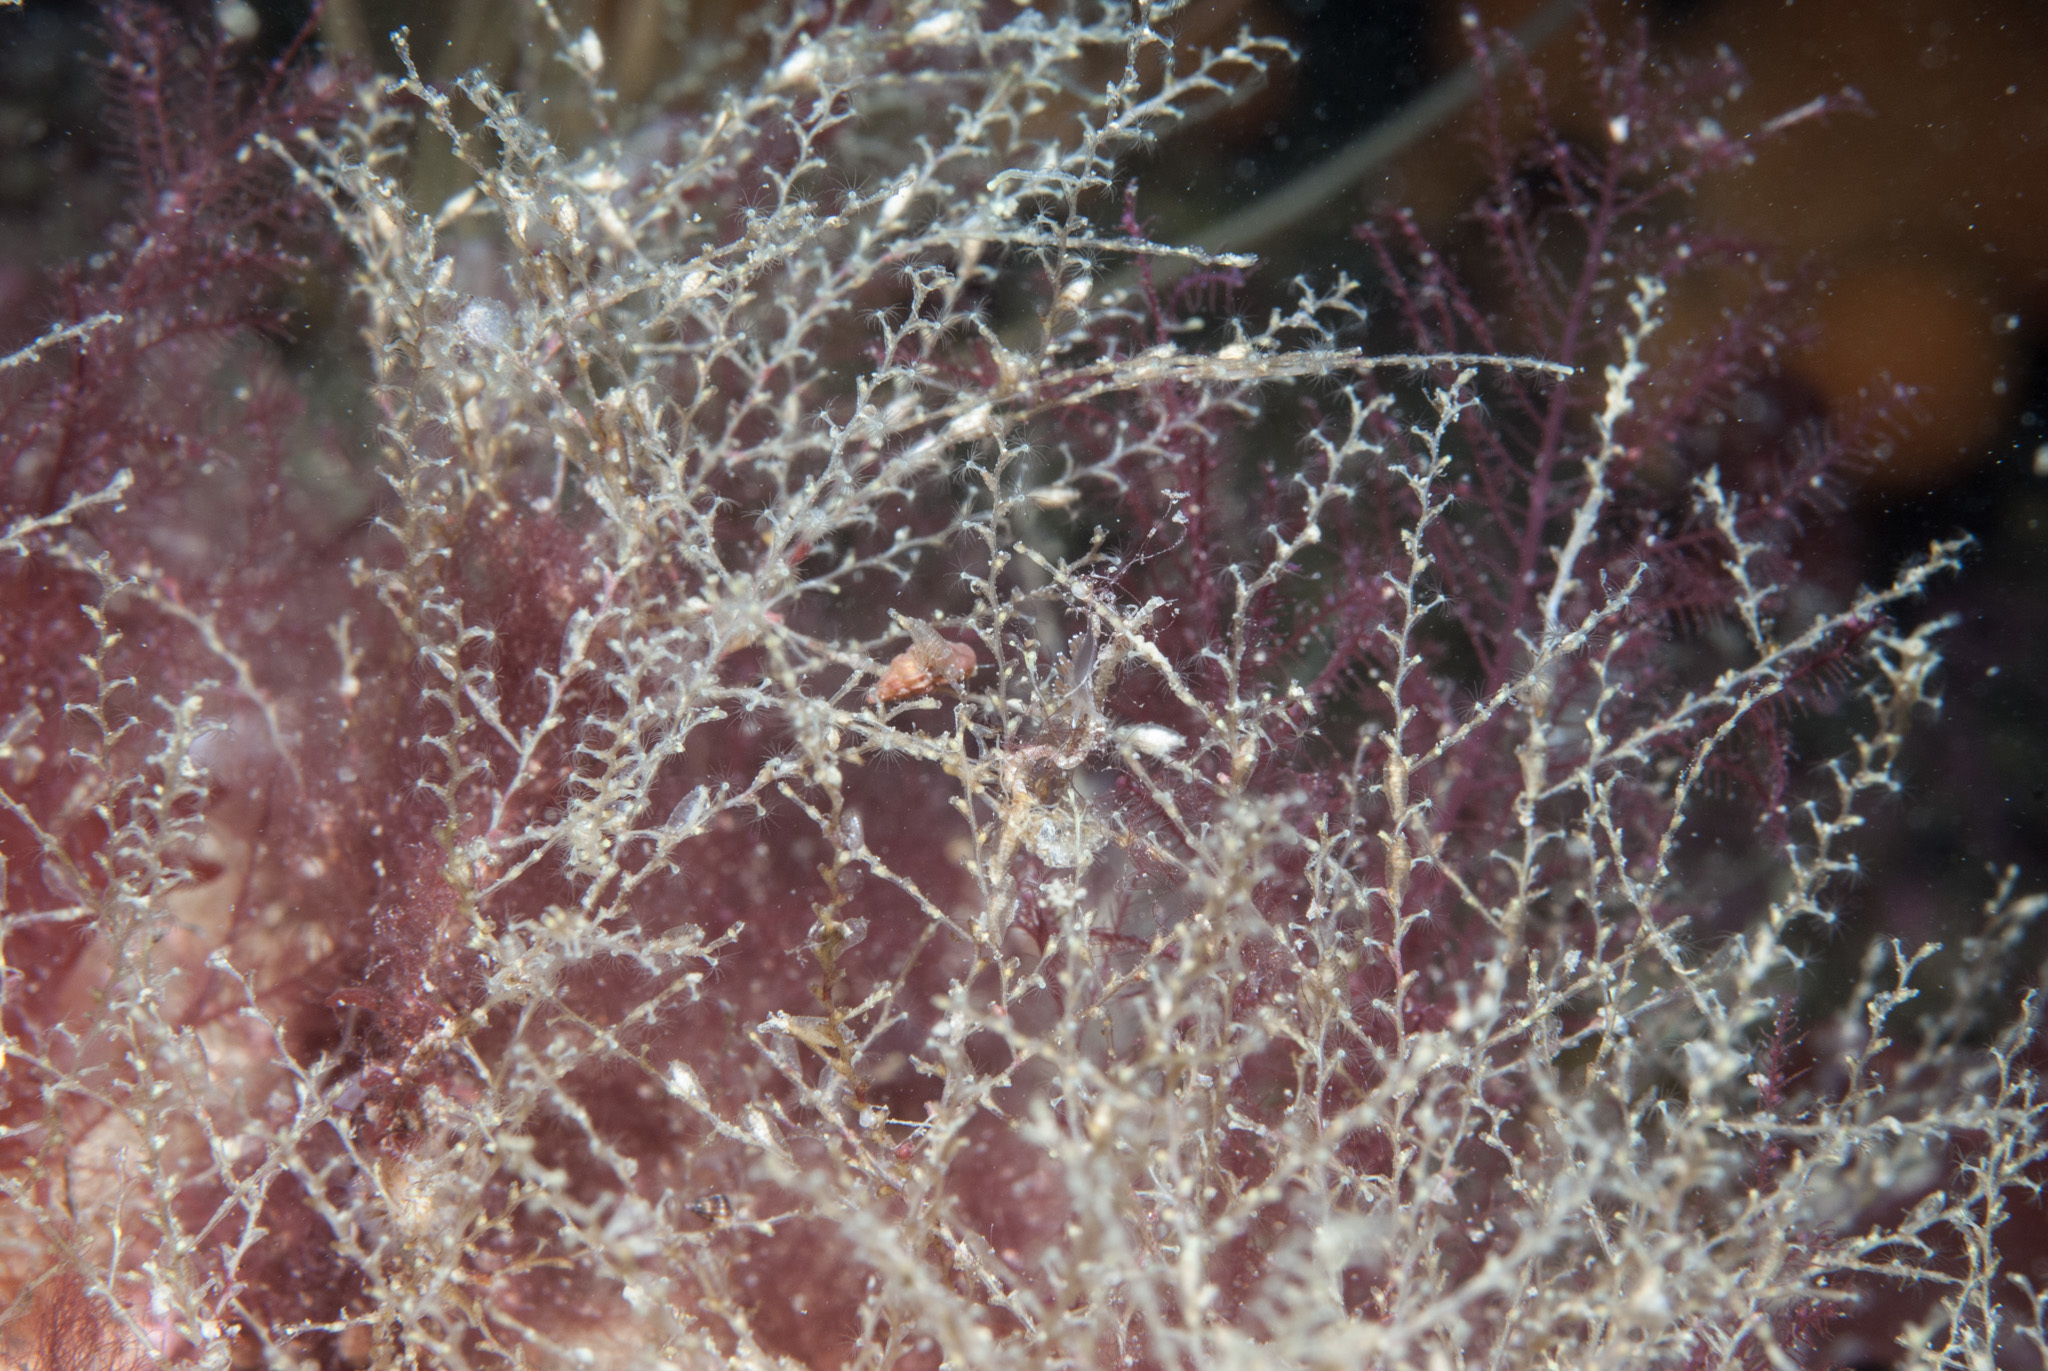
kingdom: Animalia
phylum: Cnidaria
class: Hydrozoa
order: Leptothecata
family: Sertularellidae
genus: Sertularella
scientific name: Sertularella polyzonias
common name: Great tooth hydroid
